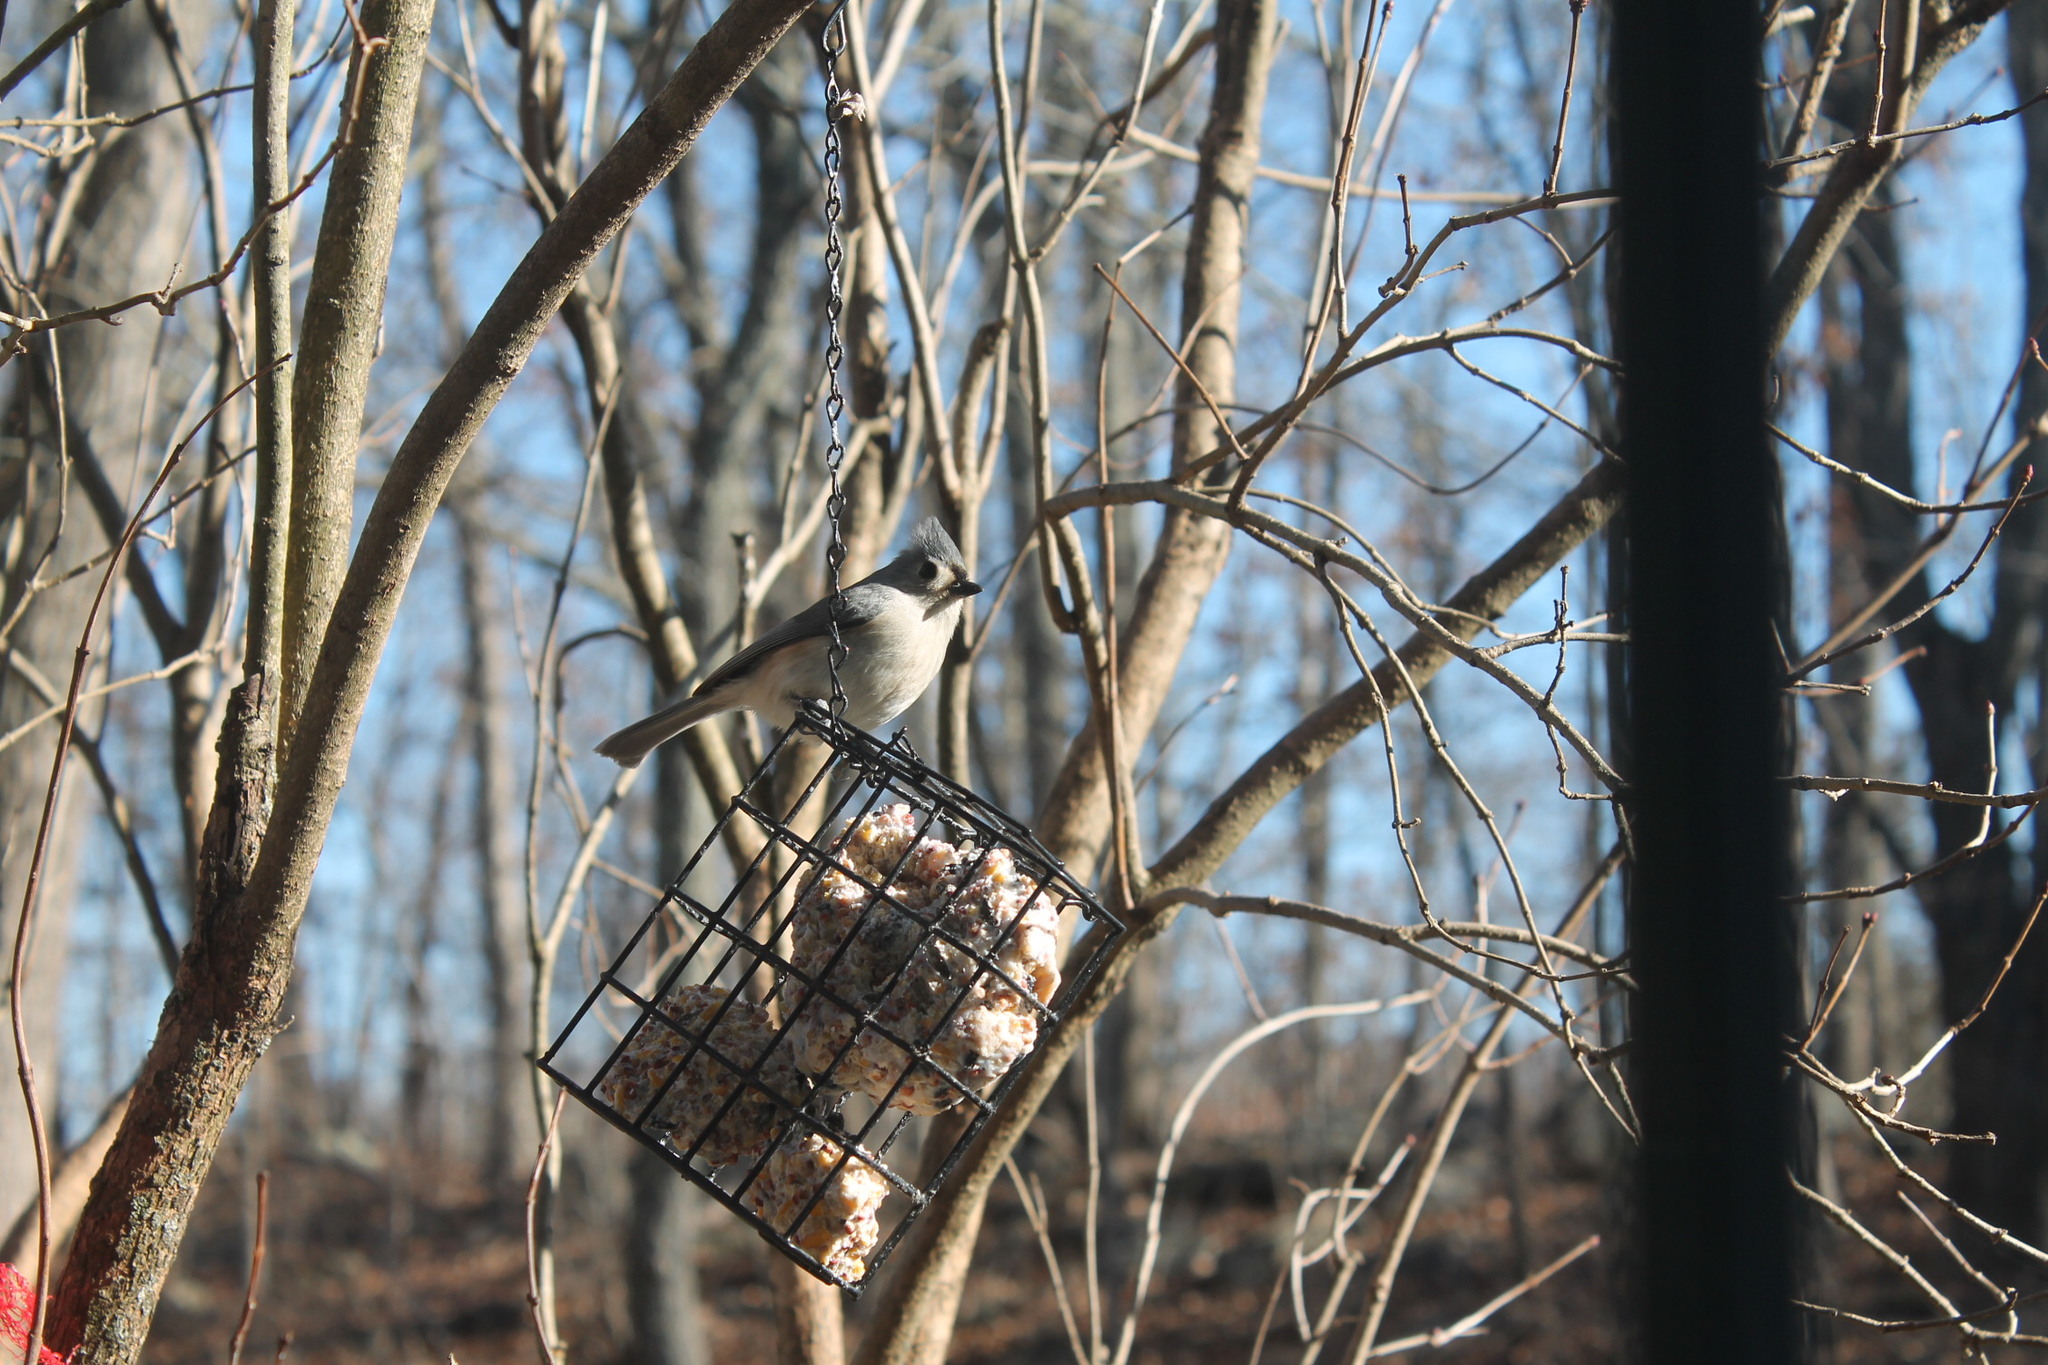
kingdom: Animalia
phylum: Chordata
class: Aves
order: Passeriformes
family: Paridae
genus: Baeolophus
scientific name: Baeolophus bicolor
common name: Tufted titmouse
